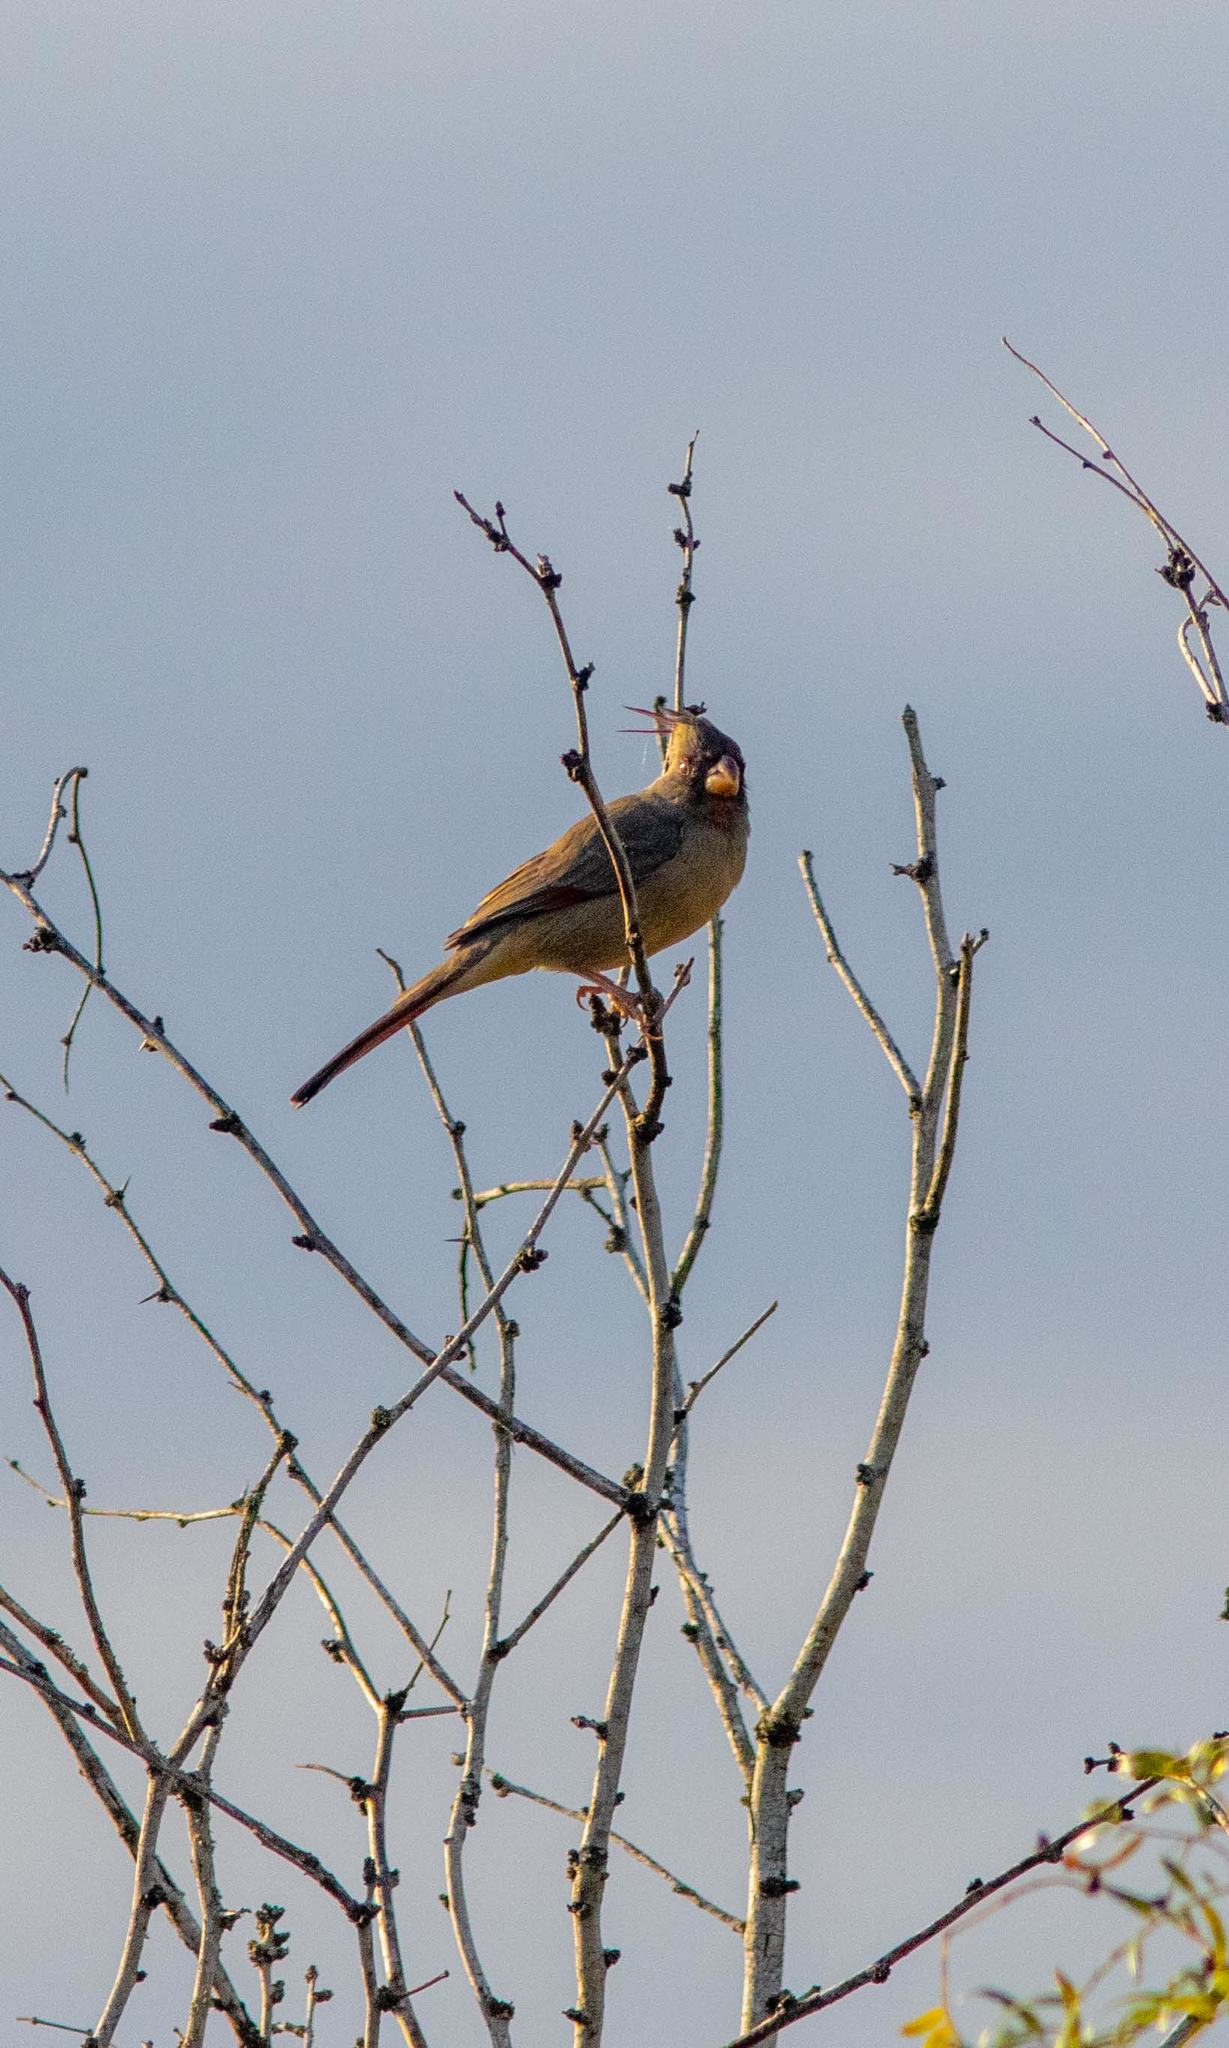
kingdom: Animalia
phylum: Chordata
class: Aves
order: Passeriformes
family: Cardinalidae
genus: Cardinalis
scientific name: Cardinalis sinuatus
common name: Pyrrhuloxia
